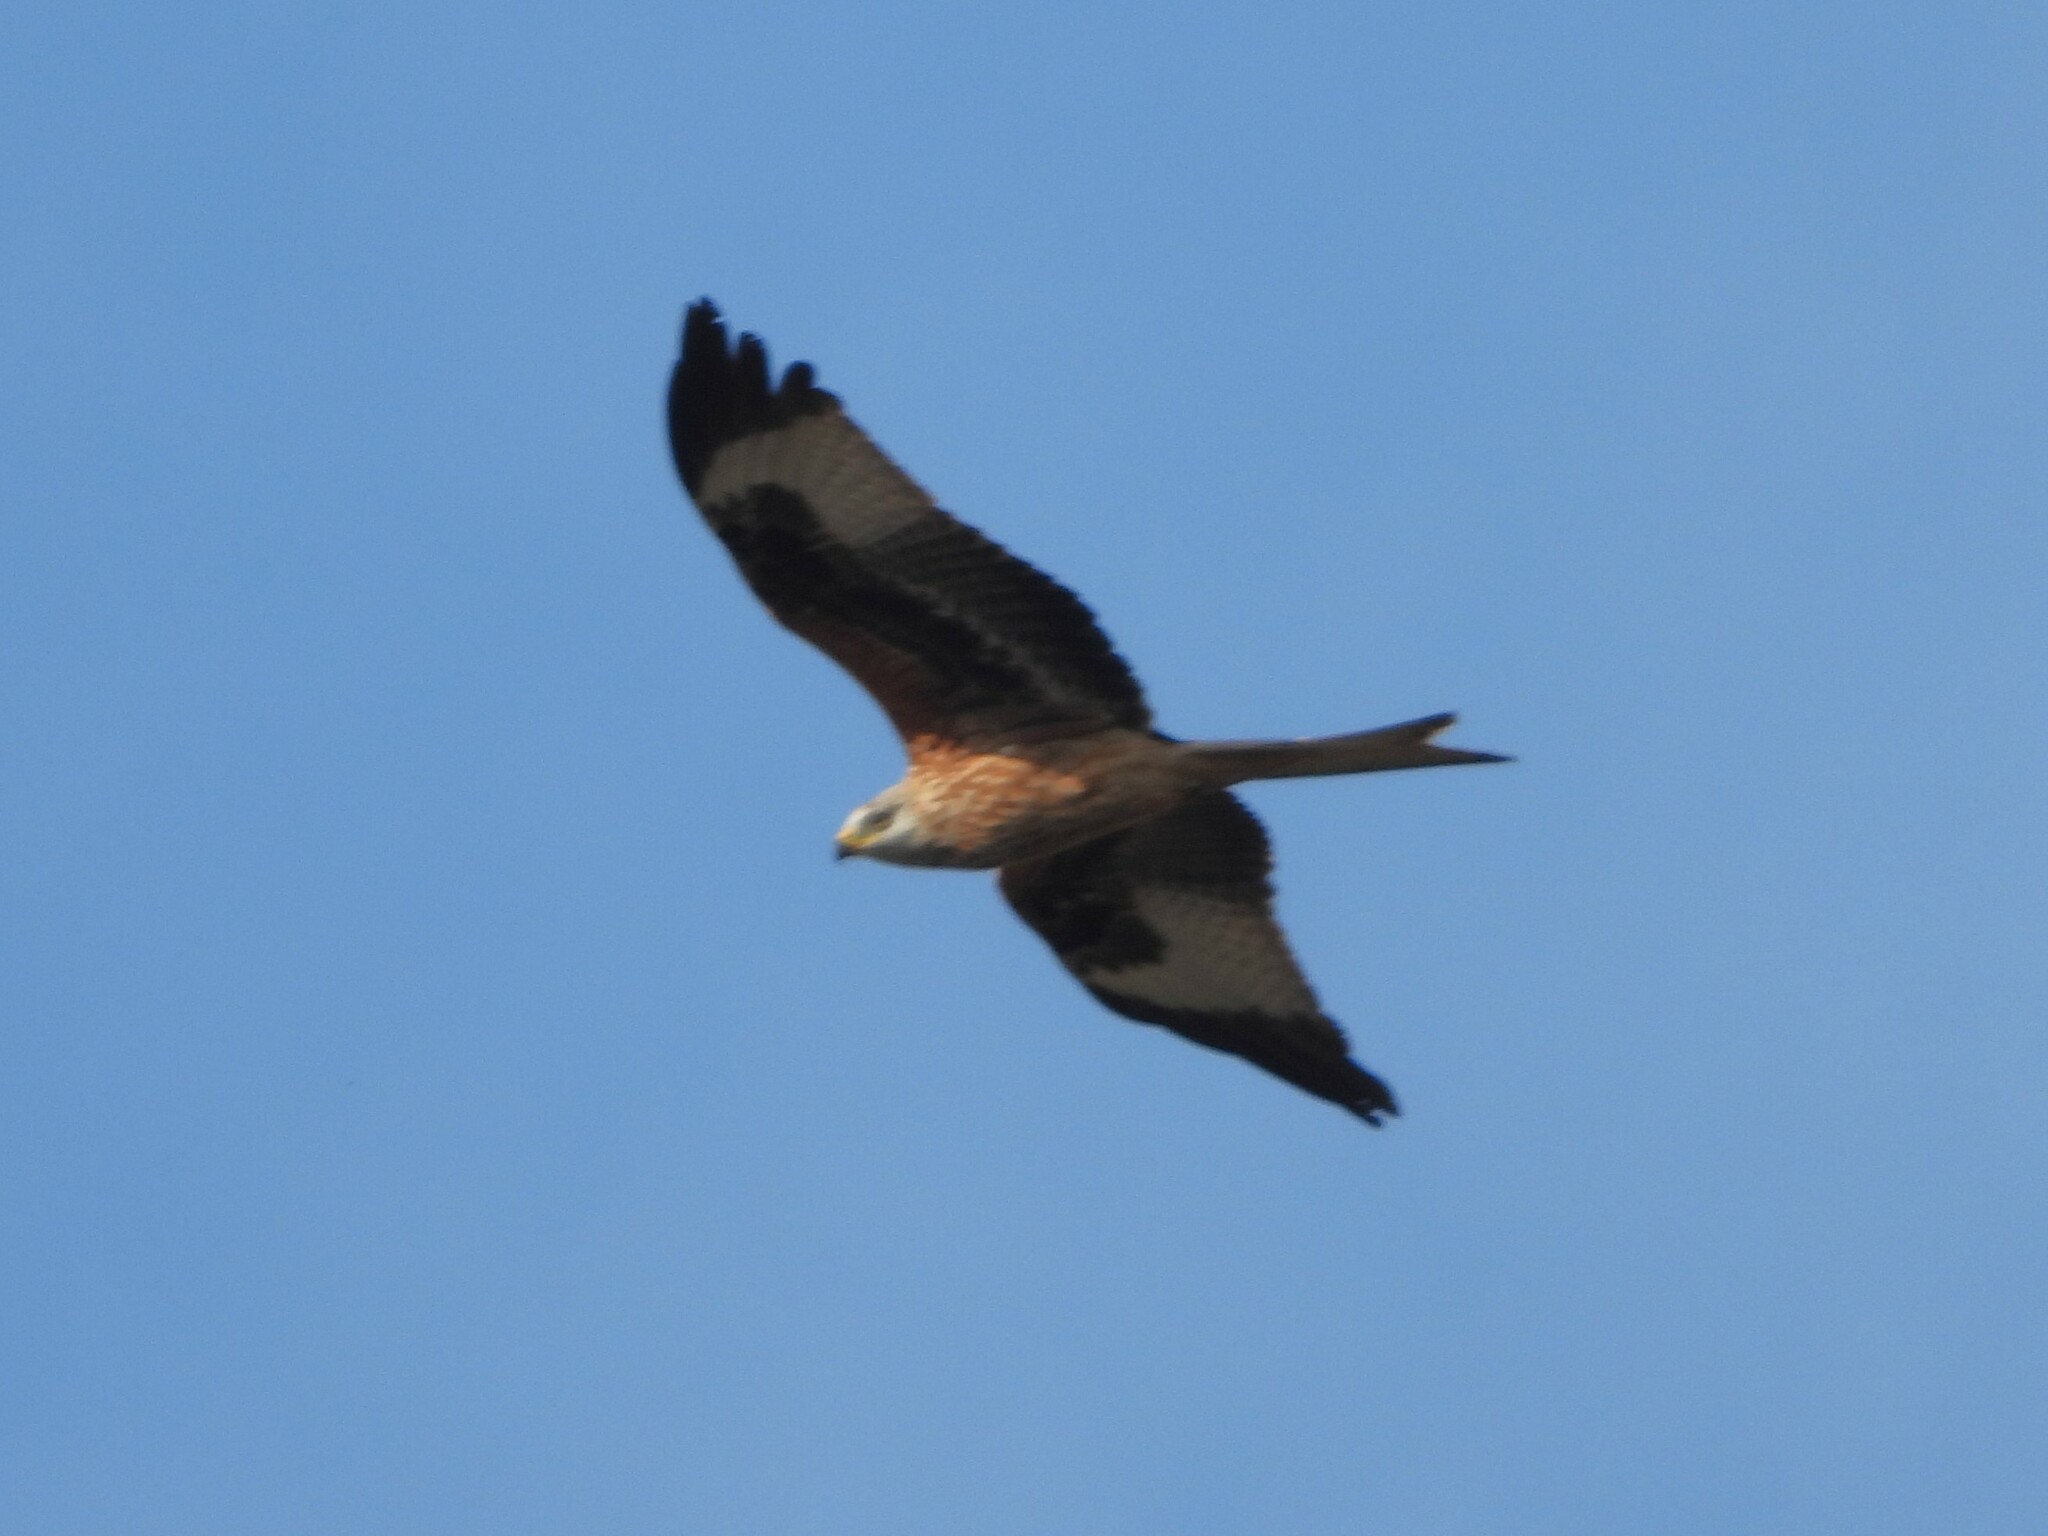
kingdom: Animalia
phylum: Chordata
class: Aves
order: Accipitriformes
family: Accipitridae
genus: Milvus
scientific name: Milvus milvus
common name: Red kite
